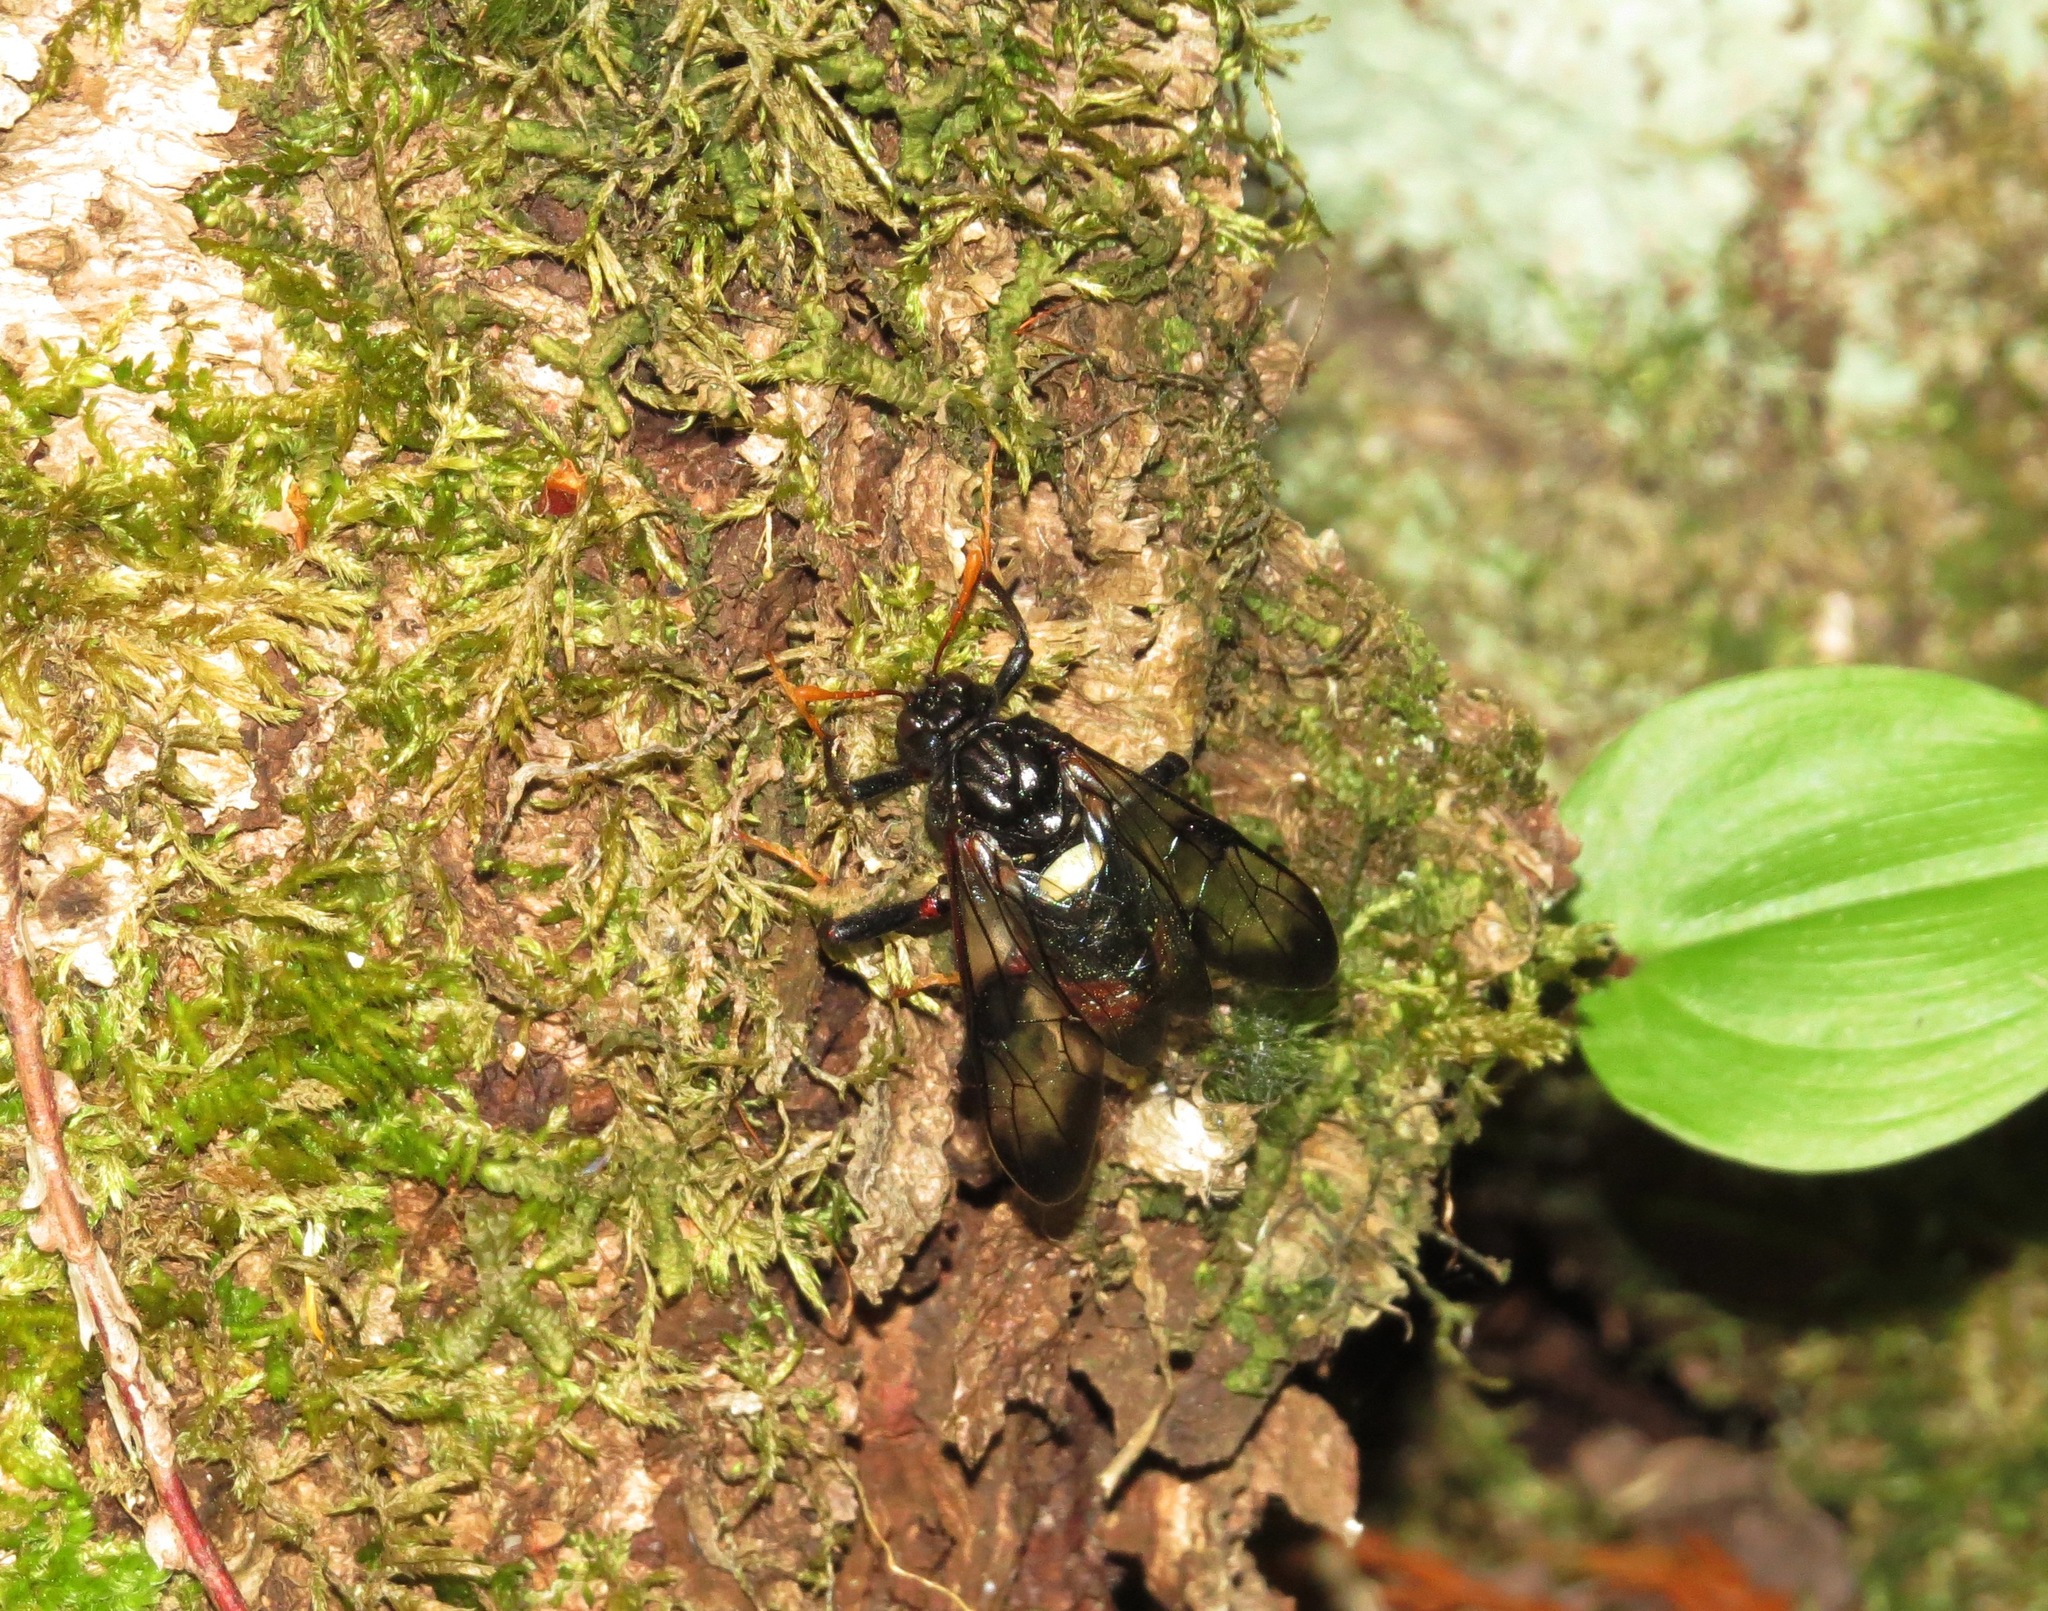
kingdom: Animalia
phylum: Arthropoda
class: Insecta
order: Hymenoptera
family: Cimbicidae
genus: Cimbex
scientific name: Cimbex americana
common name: Elm sawfly
